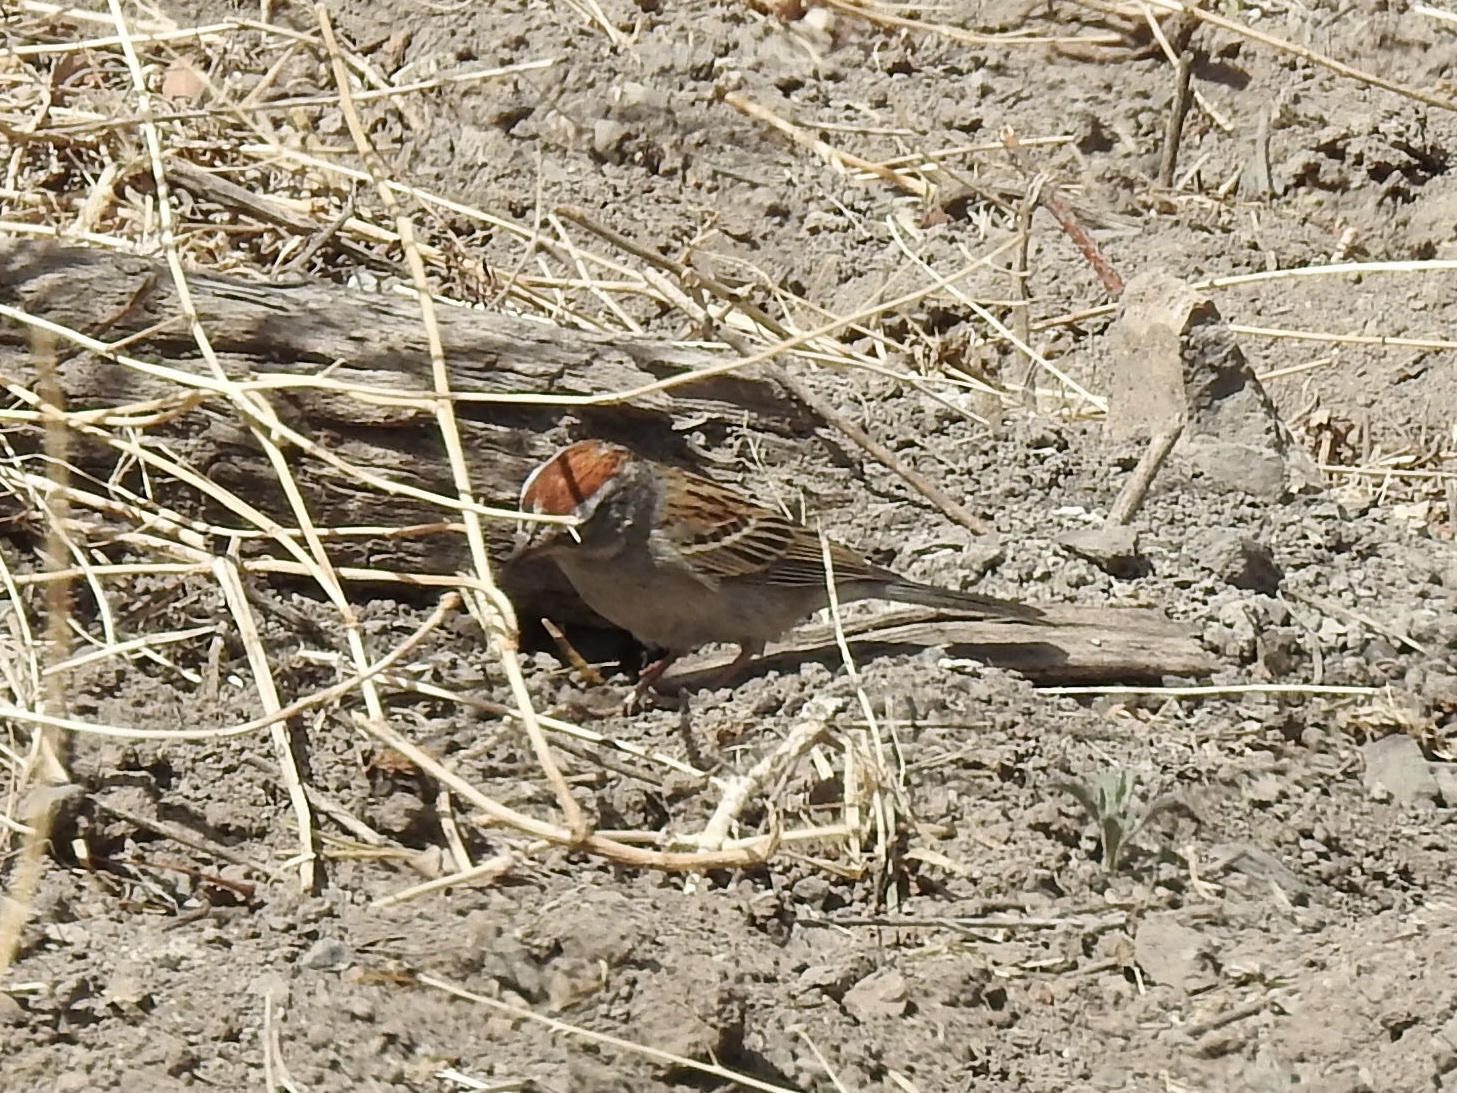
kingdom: Animalia
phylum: Chordata
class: Aves
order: Passeriformes
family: Passerellidae
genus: Spizella
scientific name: Spizella passerina
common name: Chipping sparrow
